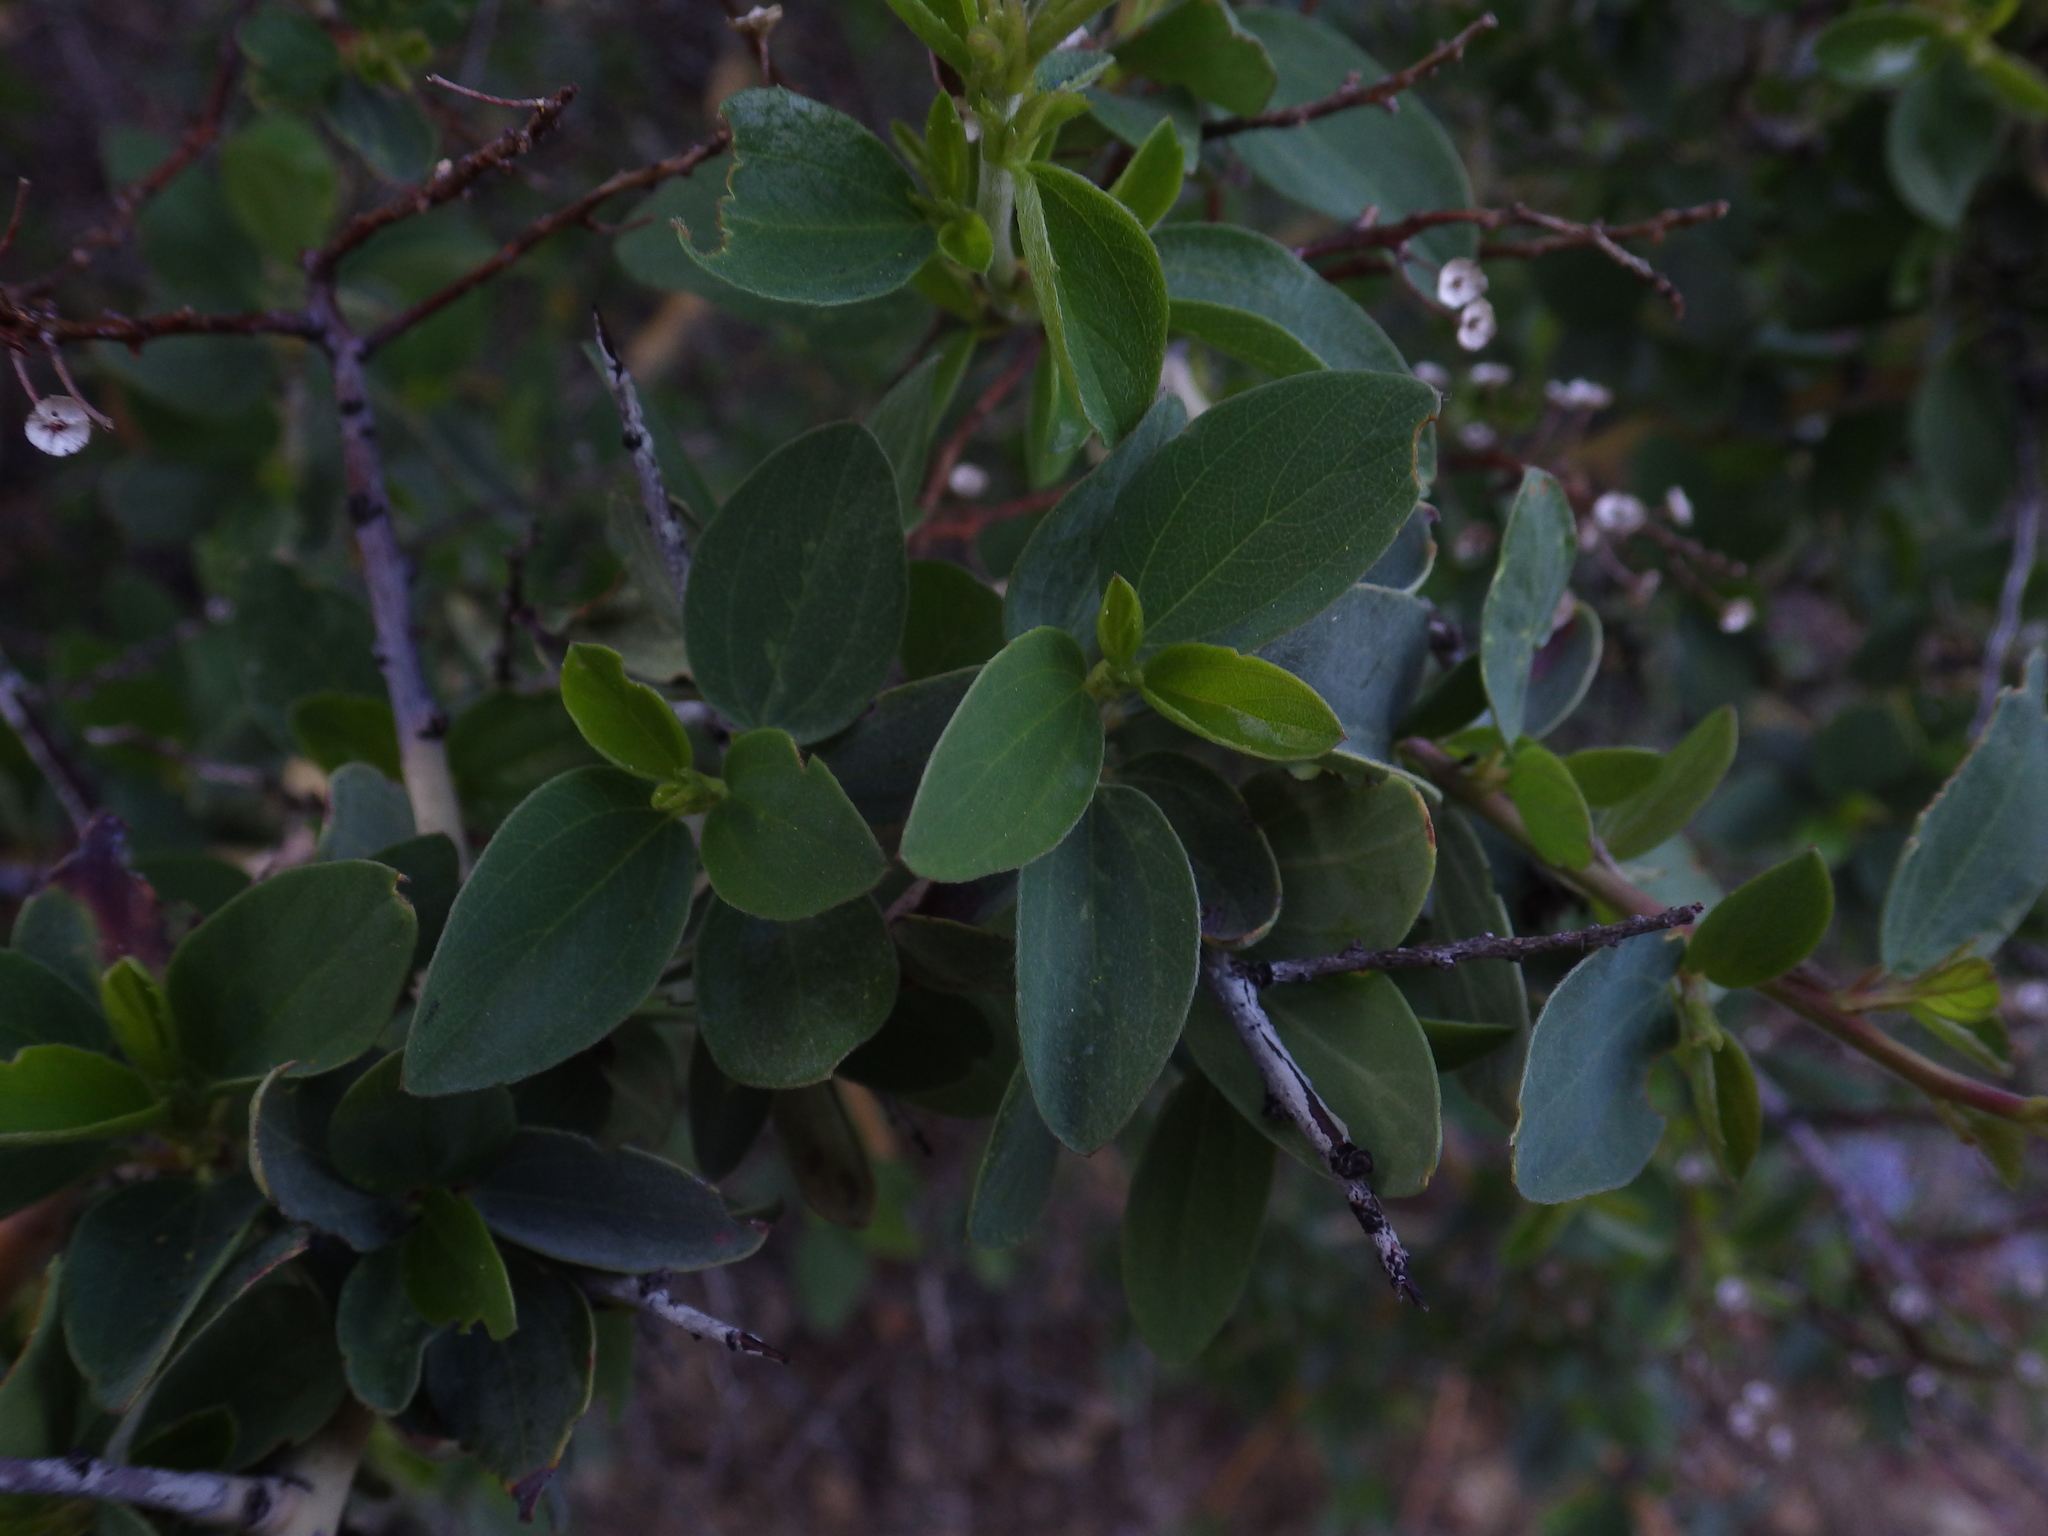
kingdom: Plantae
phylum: Tracheophyta
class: Magnoliopsida
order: Rosales
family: Rhamnaceae
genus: Ceanothus
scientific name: Ceanothus leucodermis
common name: Chaparral whitethorn
